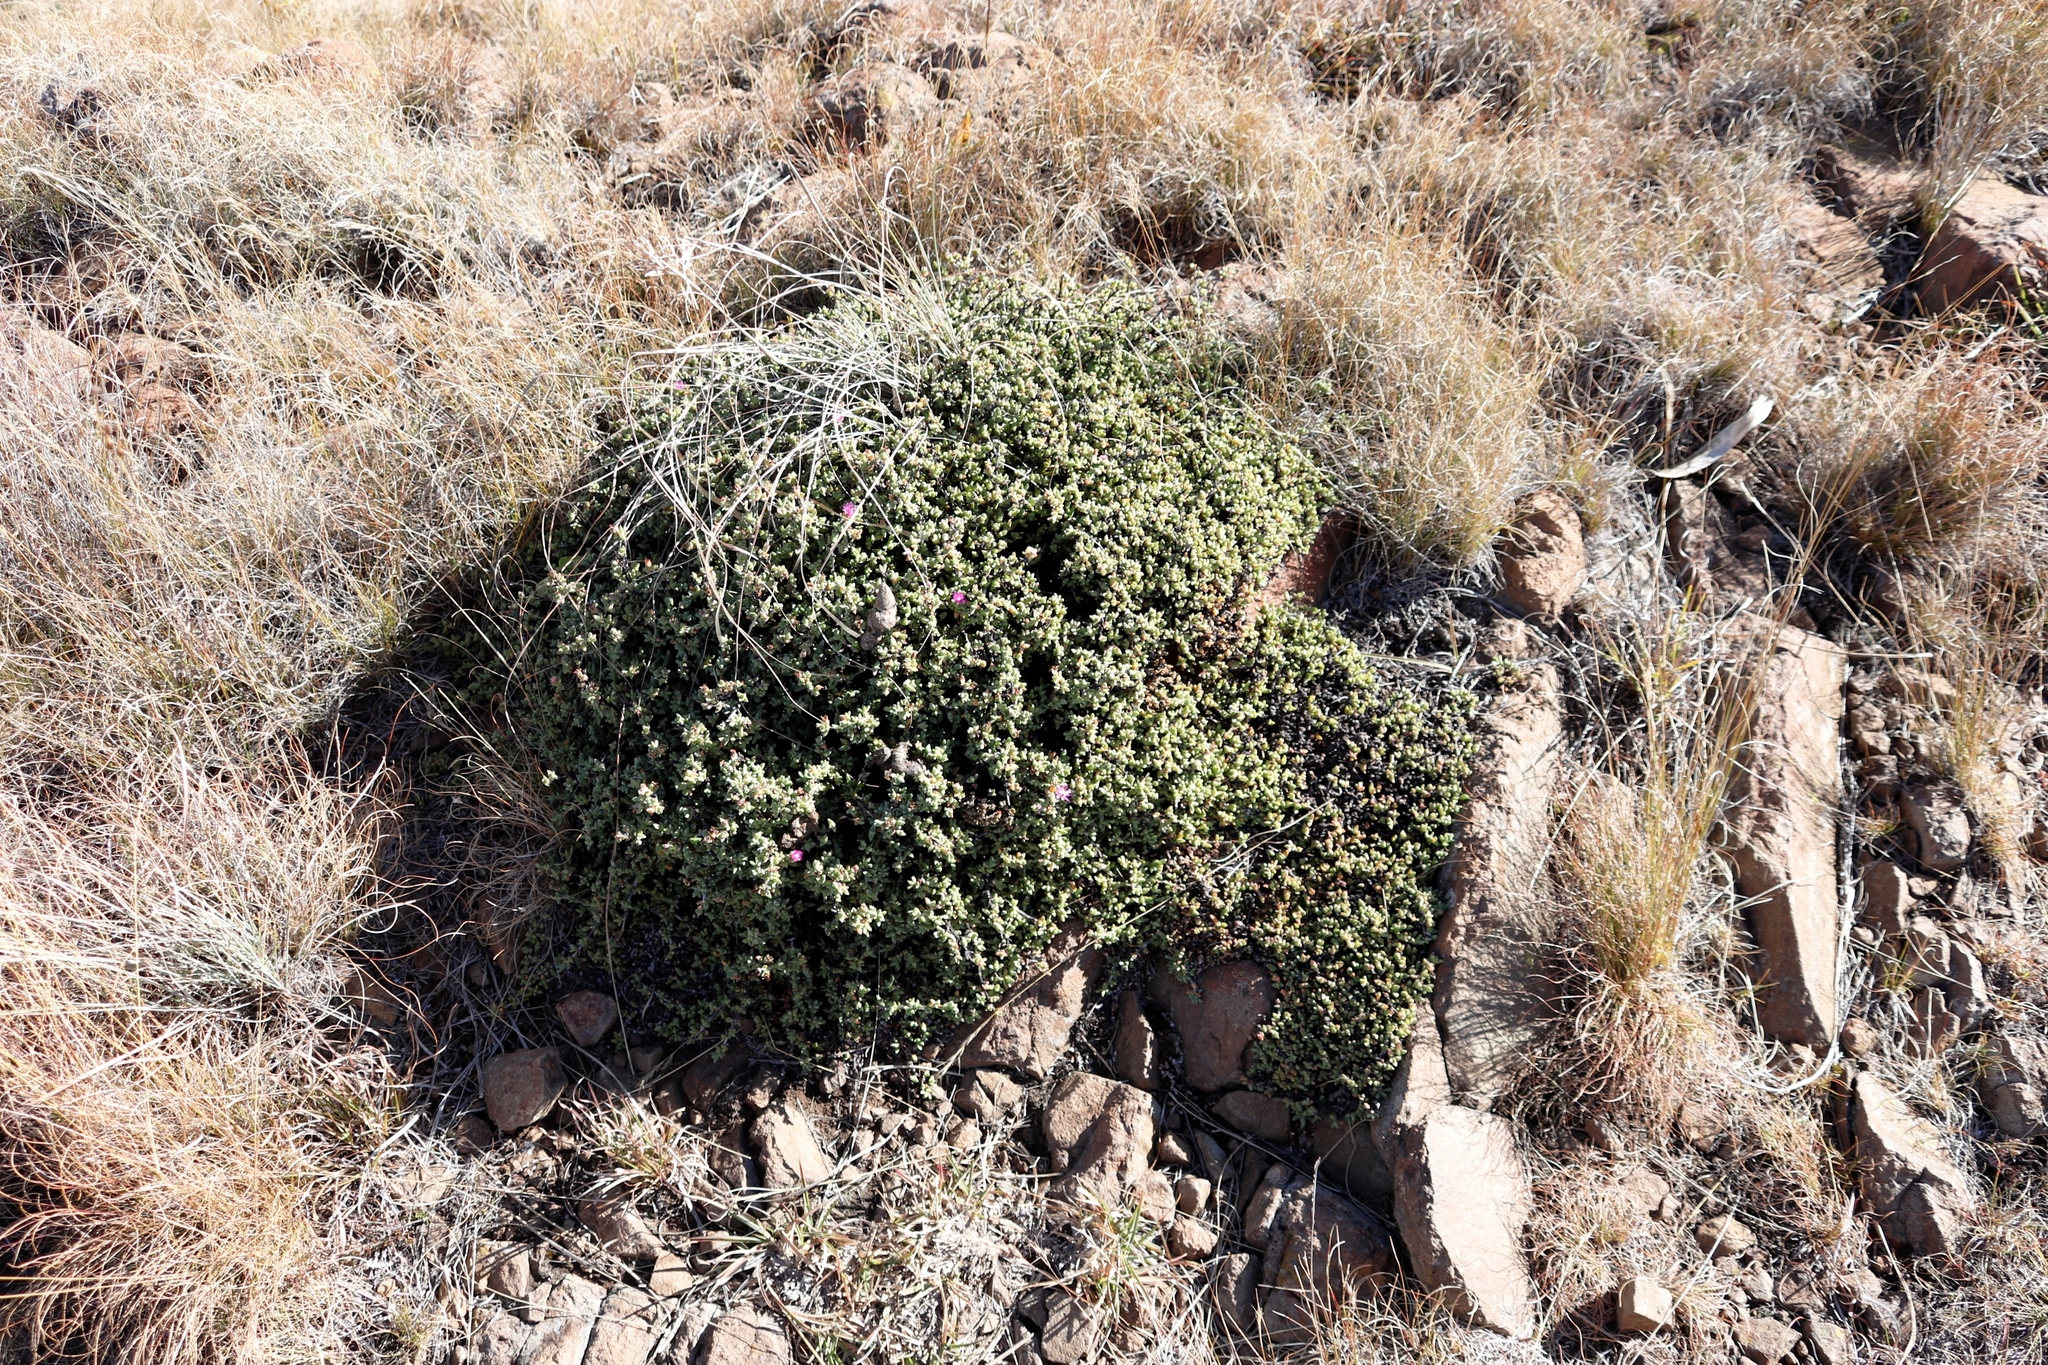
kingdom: Plantae
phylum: Tracheophyta
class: Magnoliopsida
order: Caryophyllales
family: Aizoaceae
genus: Ruschia
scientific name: Ruschia putterillii
